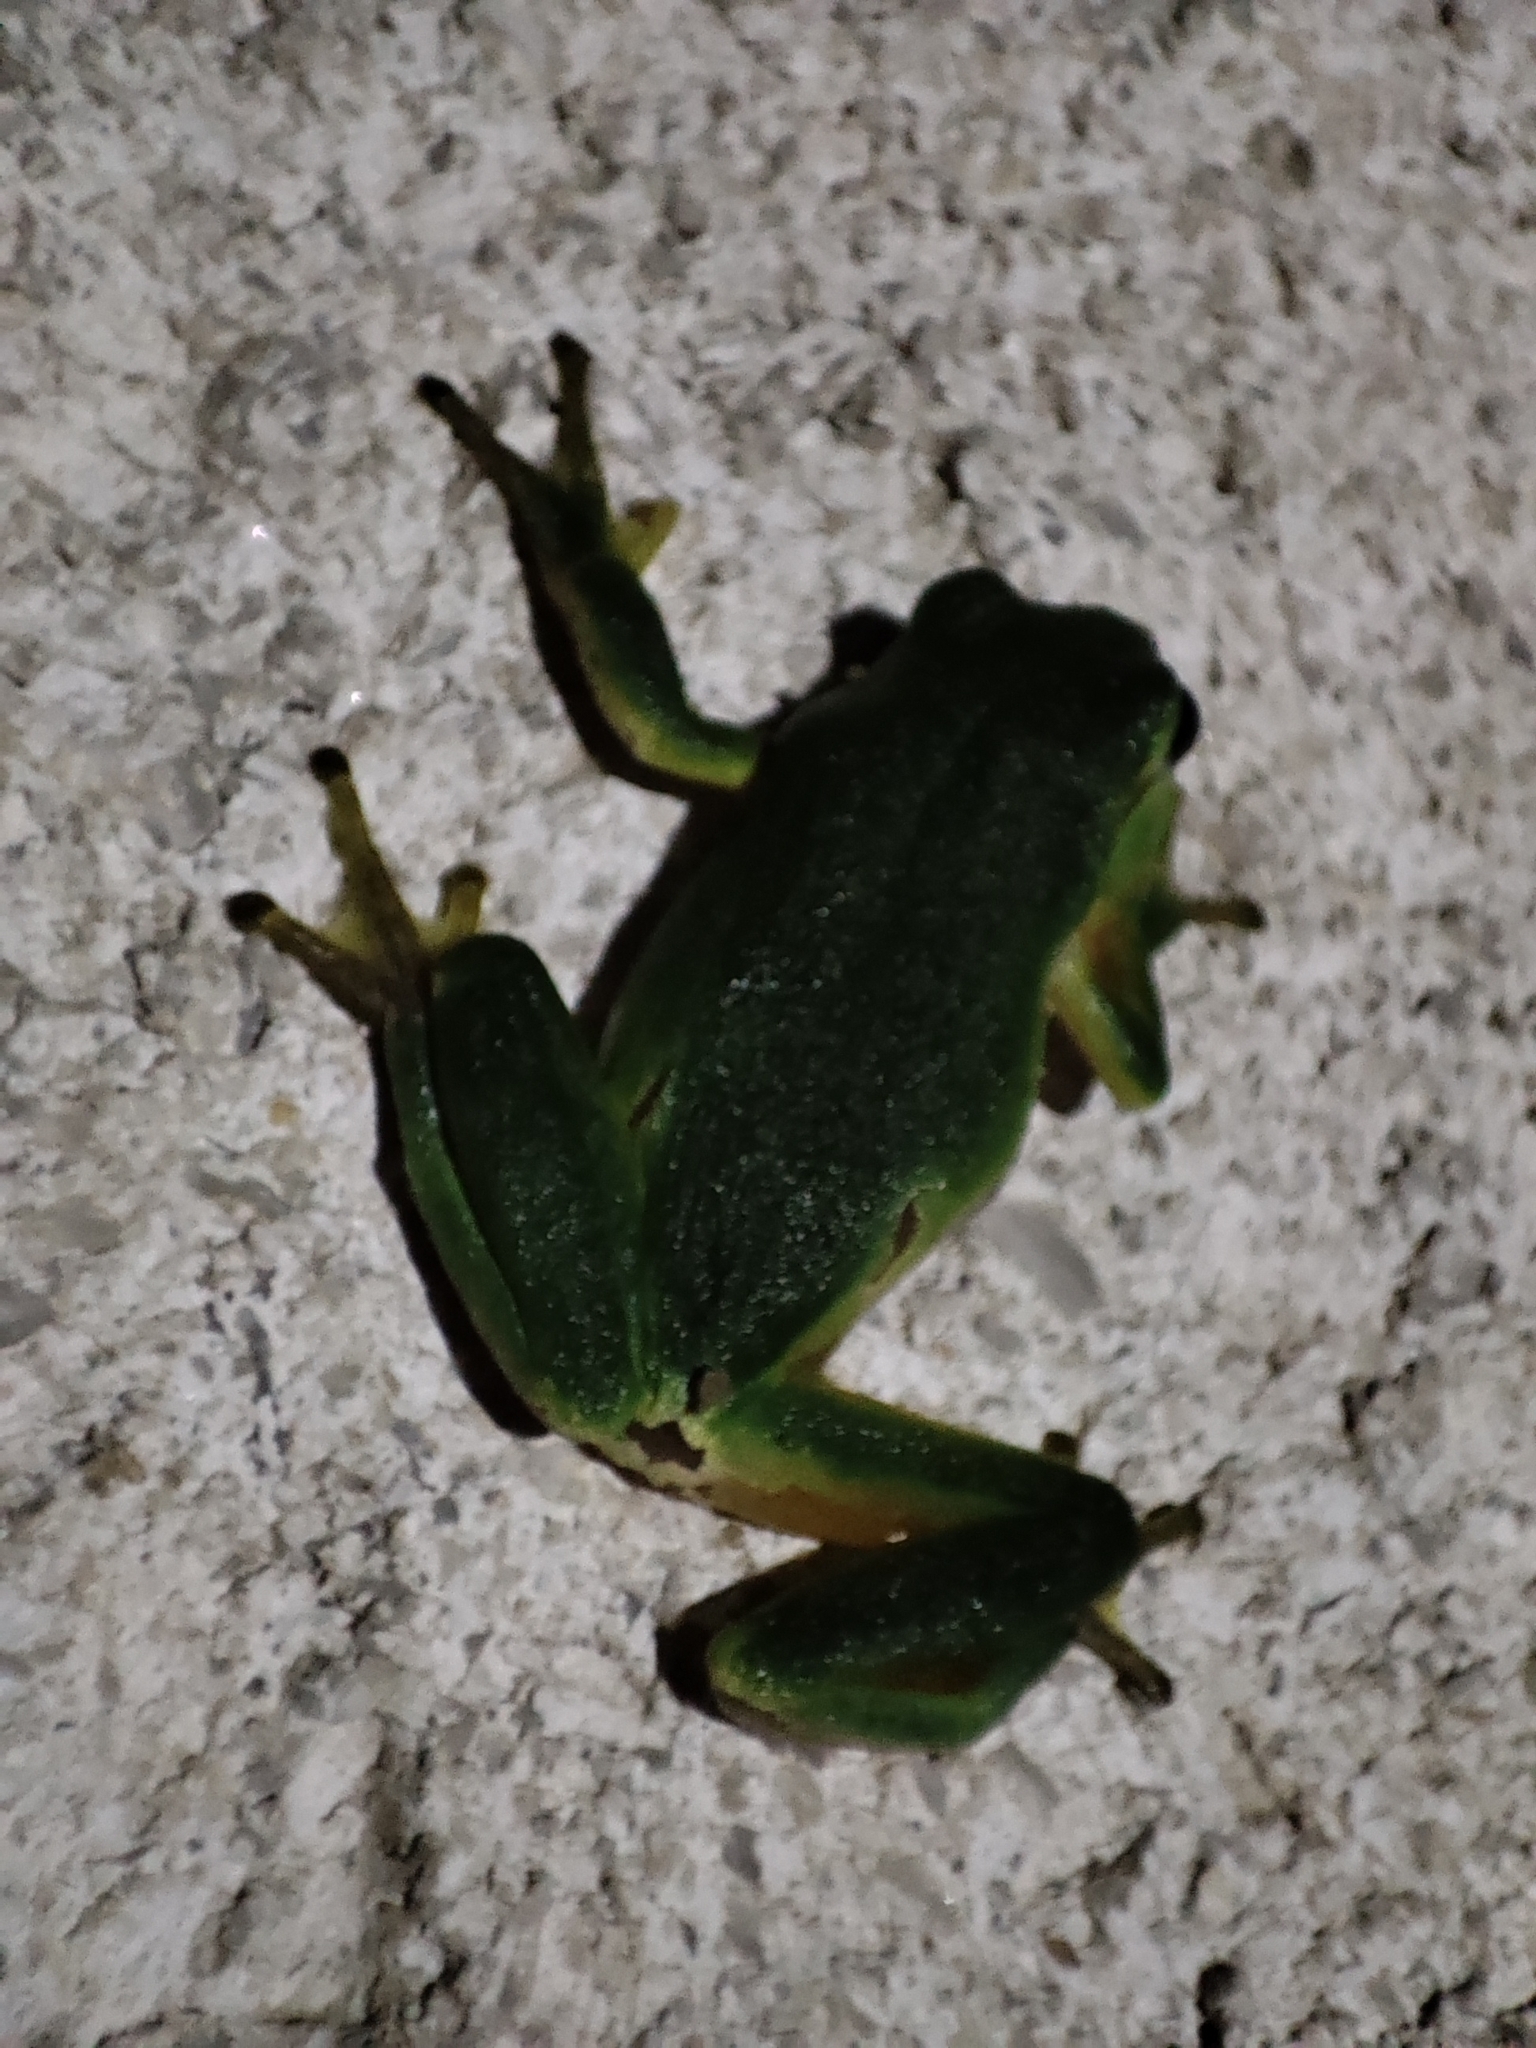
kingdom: Animalia
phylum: Chordata
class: Amphibia
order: Anura
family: Hylidae
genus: Hyla
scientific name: Hyla arborea
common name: Common tree frog
